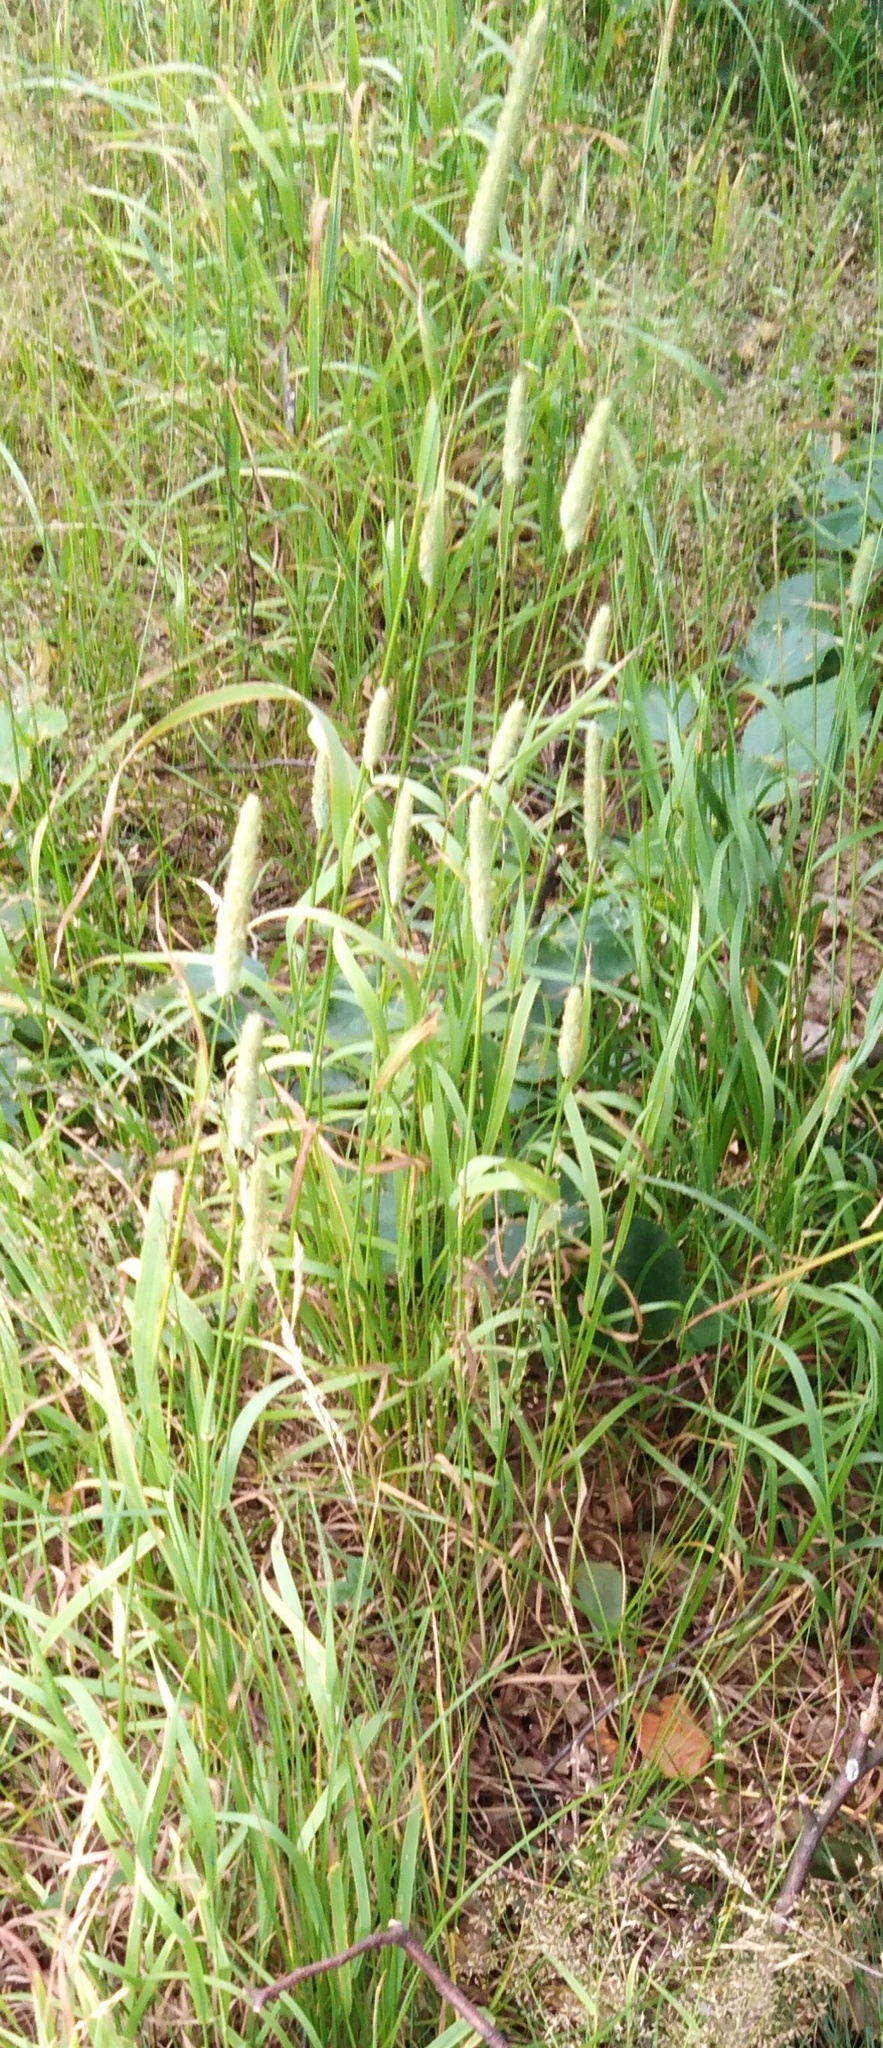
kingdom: Plantae
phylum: Tracheophyta
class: Liliopsida
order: Poales
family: Poaceae
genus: Phleum
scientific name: Phleum pratense
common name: Timothy grass
